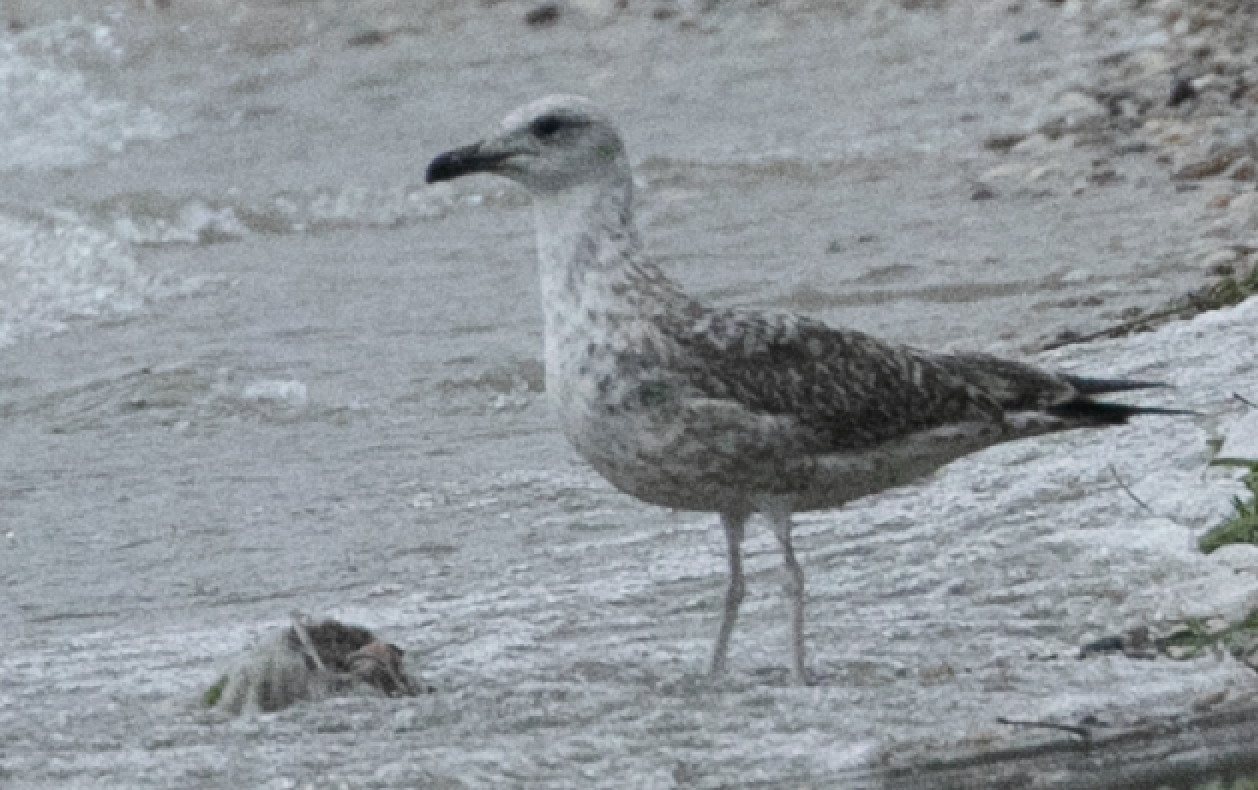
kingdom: Animalia
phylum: Chordata
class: Aves
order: Charadriiformes
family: Laridae
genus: Larus
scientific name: Larus michahellis
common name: Yellow-legged gull
